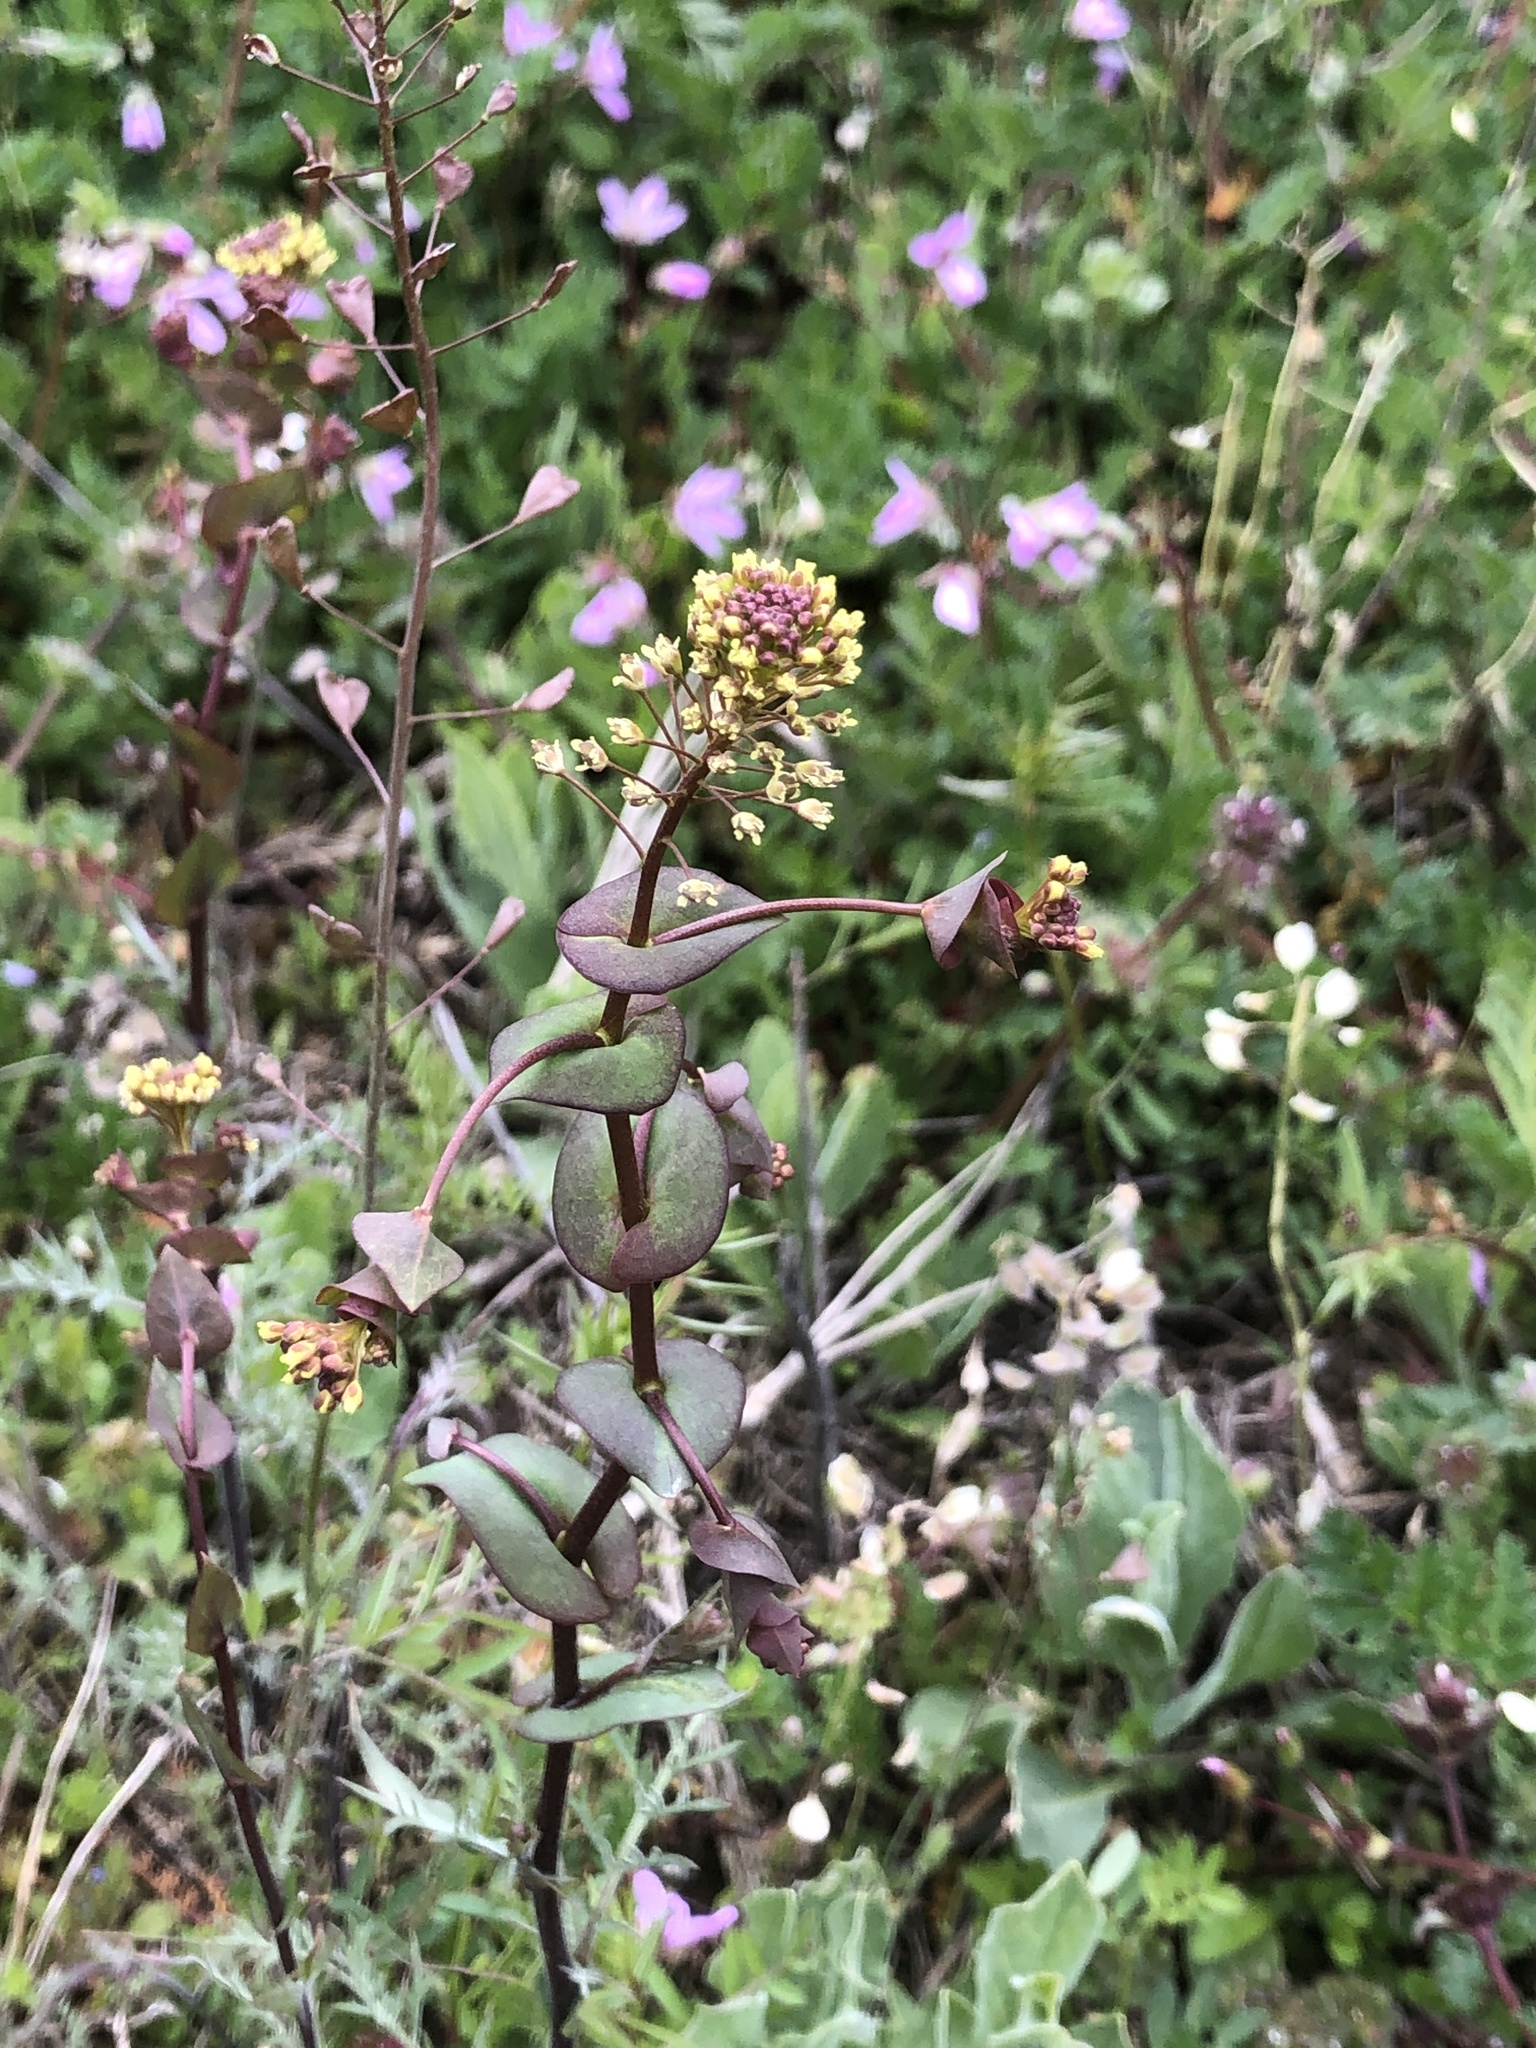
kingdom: Plantae
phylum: Tracheophyta
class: Magnoliopsida
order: Brassicales
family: Brassicaceae
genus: Lepidium
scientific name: Lepidium perfoliatum
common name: Perfoliate pepperwort
